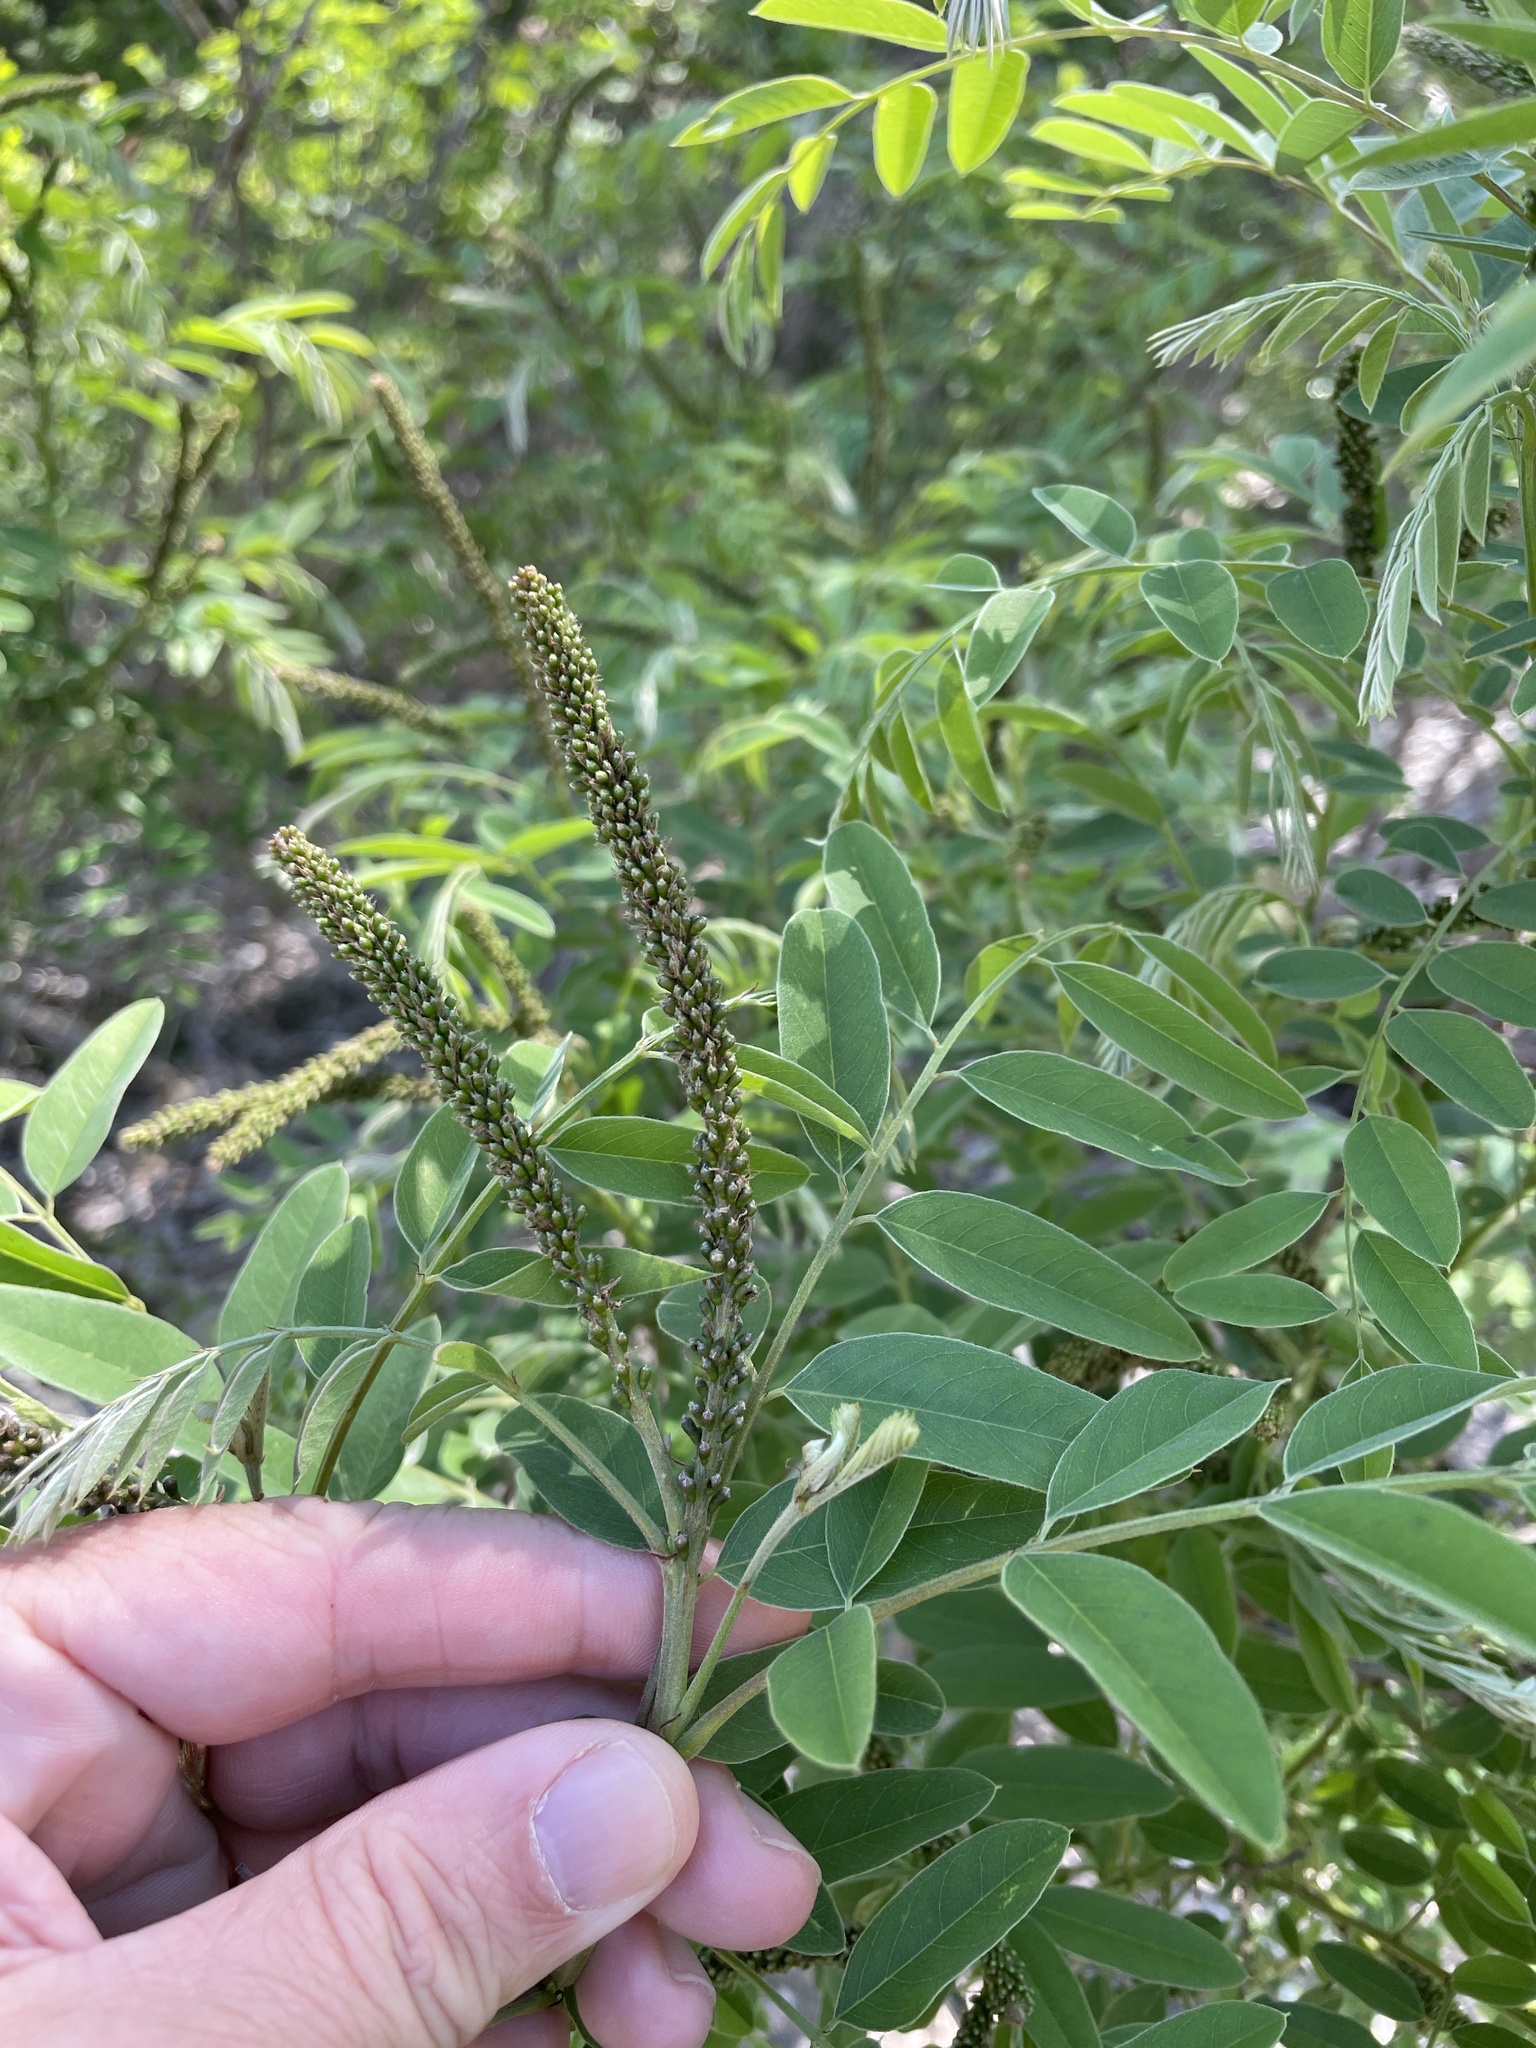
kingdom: Plantae
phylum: Tracheophyta
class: Magnoliopsida
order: Fabales
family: Fabaceae
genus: Amorpha
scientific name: Amorpha fruticosa
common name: False indigo
